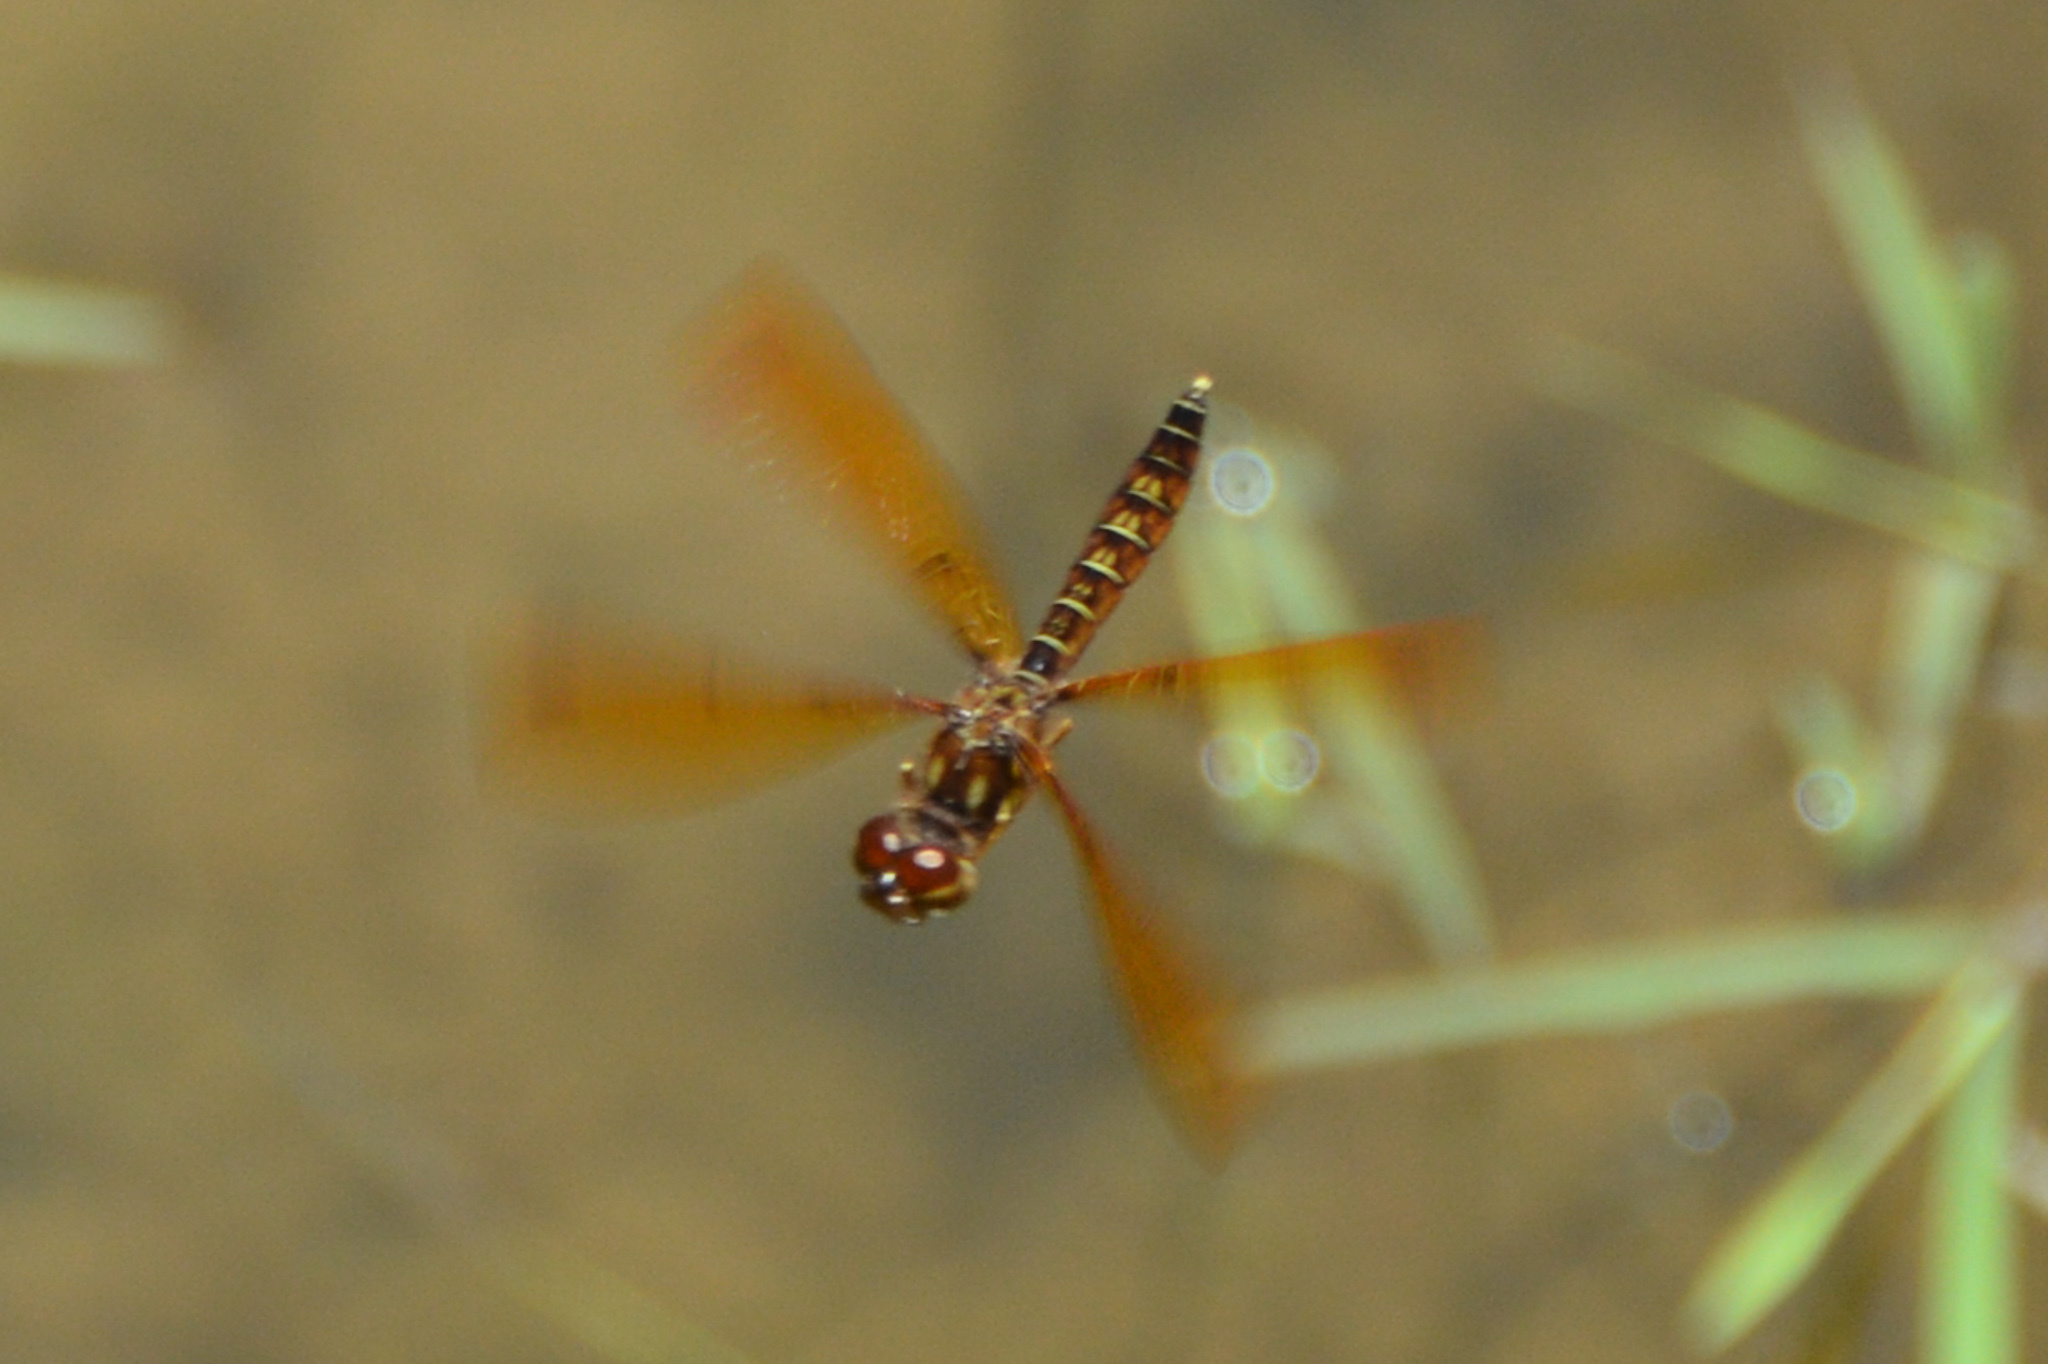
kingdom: Animalia
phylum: Arthropoda
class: Insecta
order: Odonata
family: Libellulidae
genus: Perithemis
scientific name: Perithemis tenera
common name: Eastern amberwing
